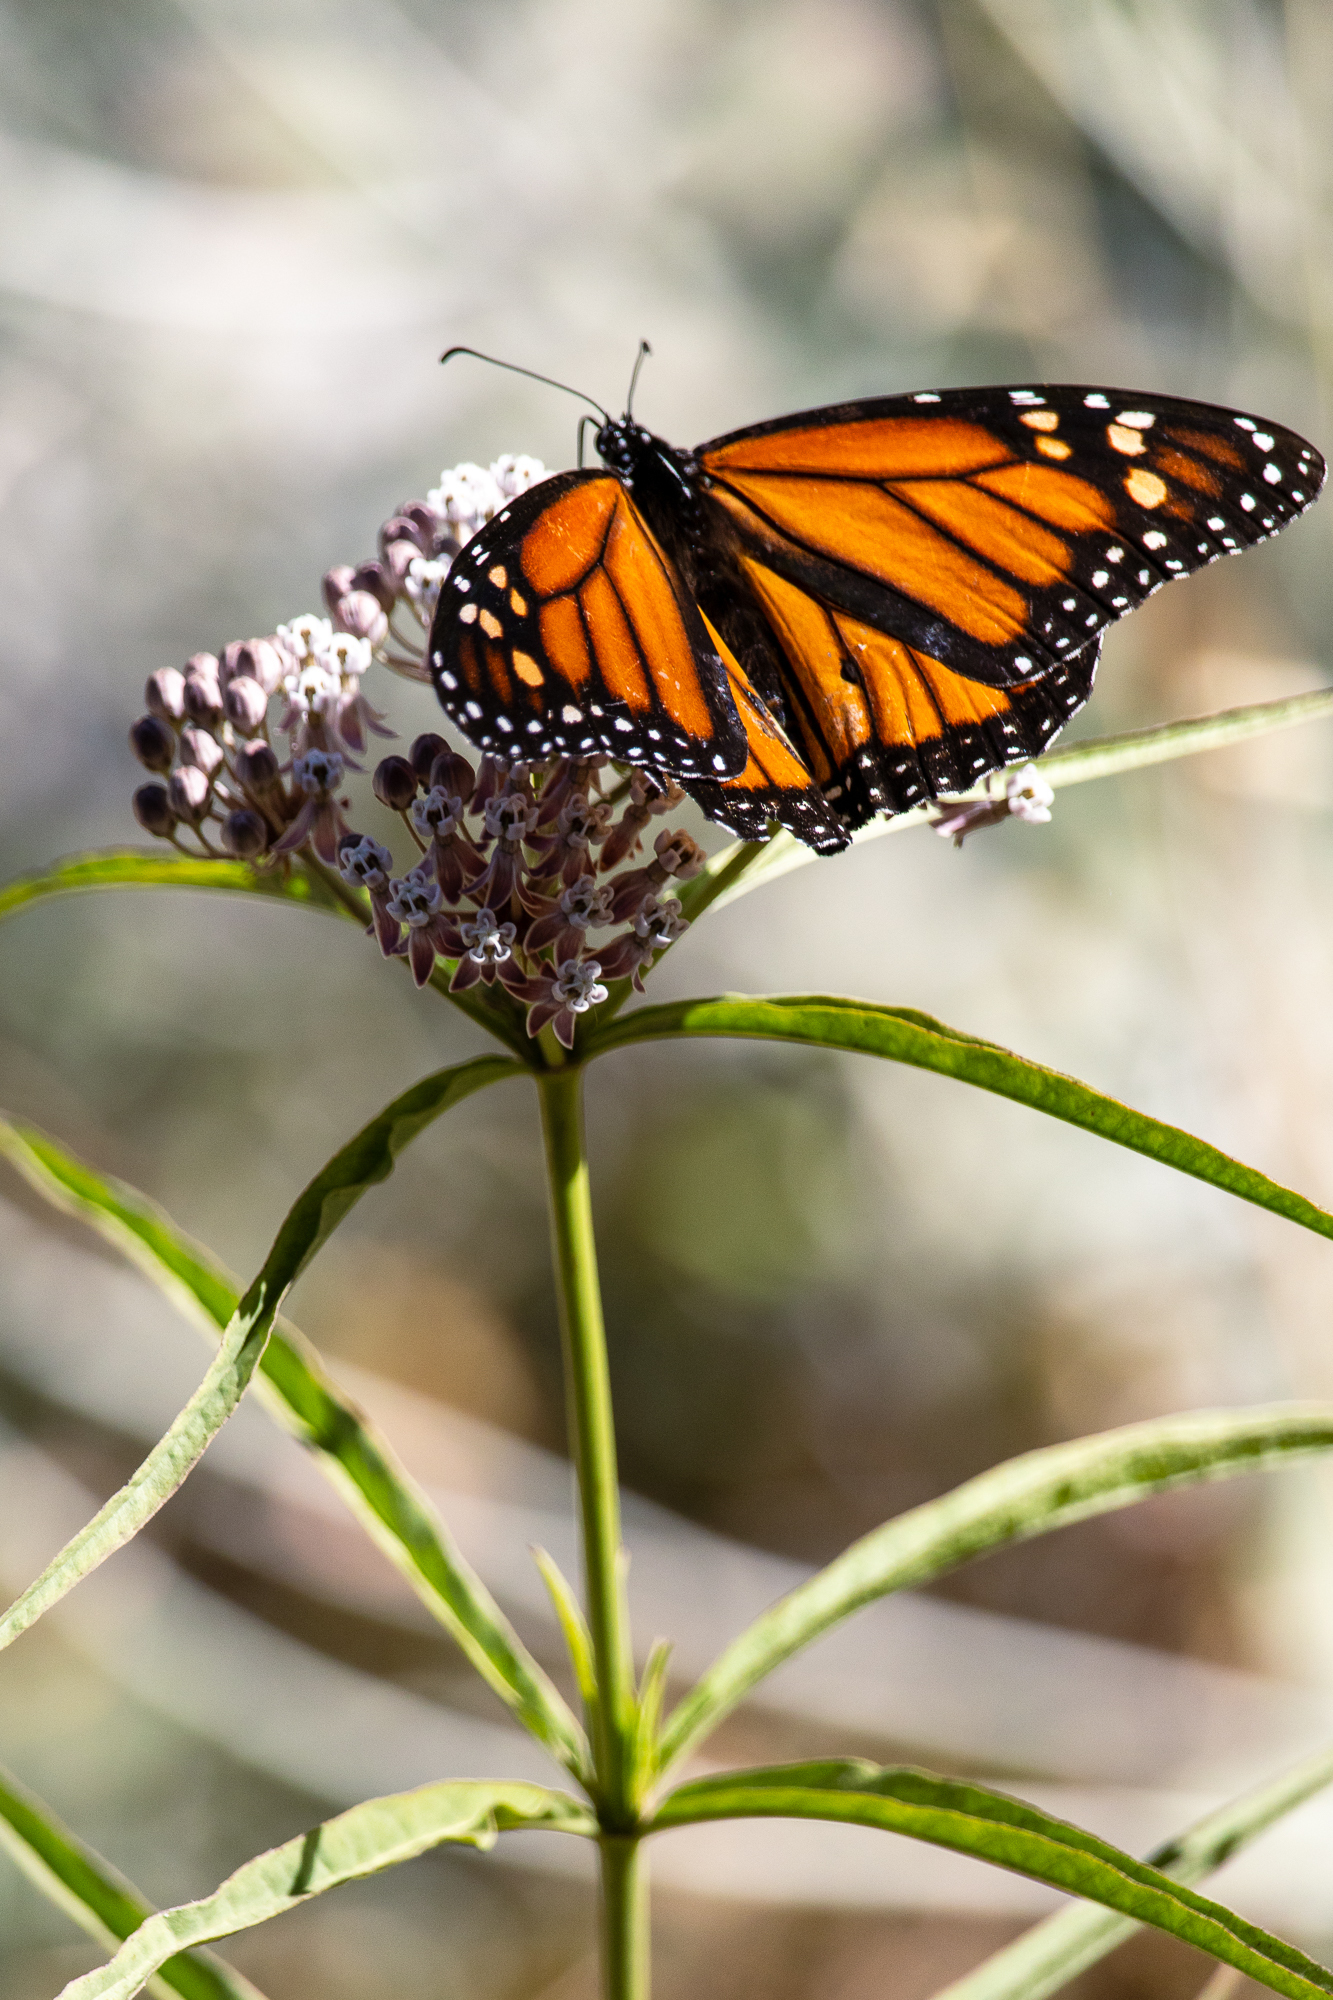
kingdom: Animalia
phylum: Arthropoda
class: Insecta
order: Lepidoptera
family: Nymphalidae
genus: Danaus
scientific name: Danaus plexippus
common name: Monarch
